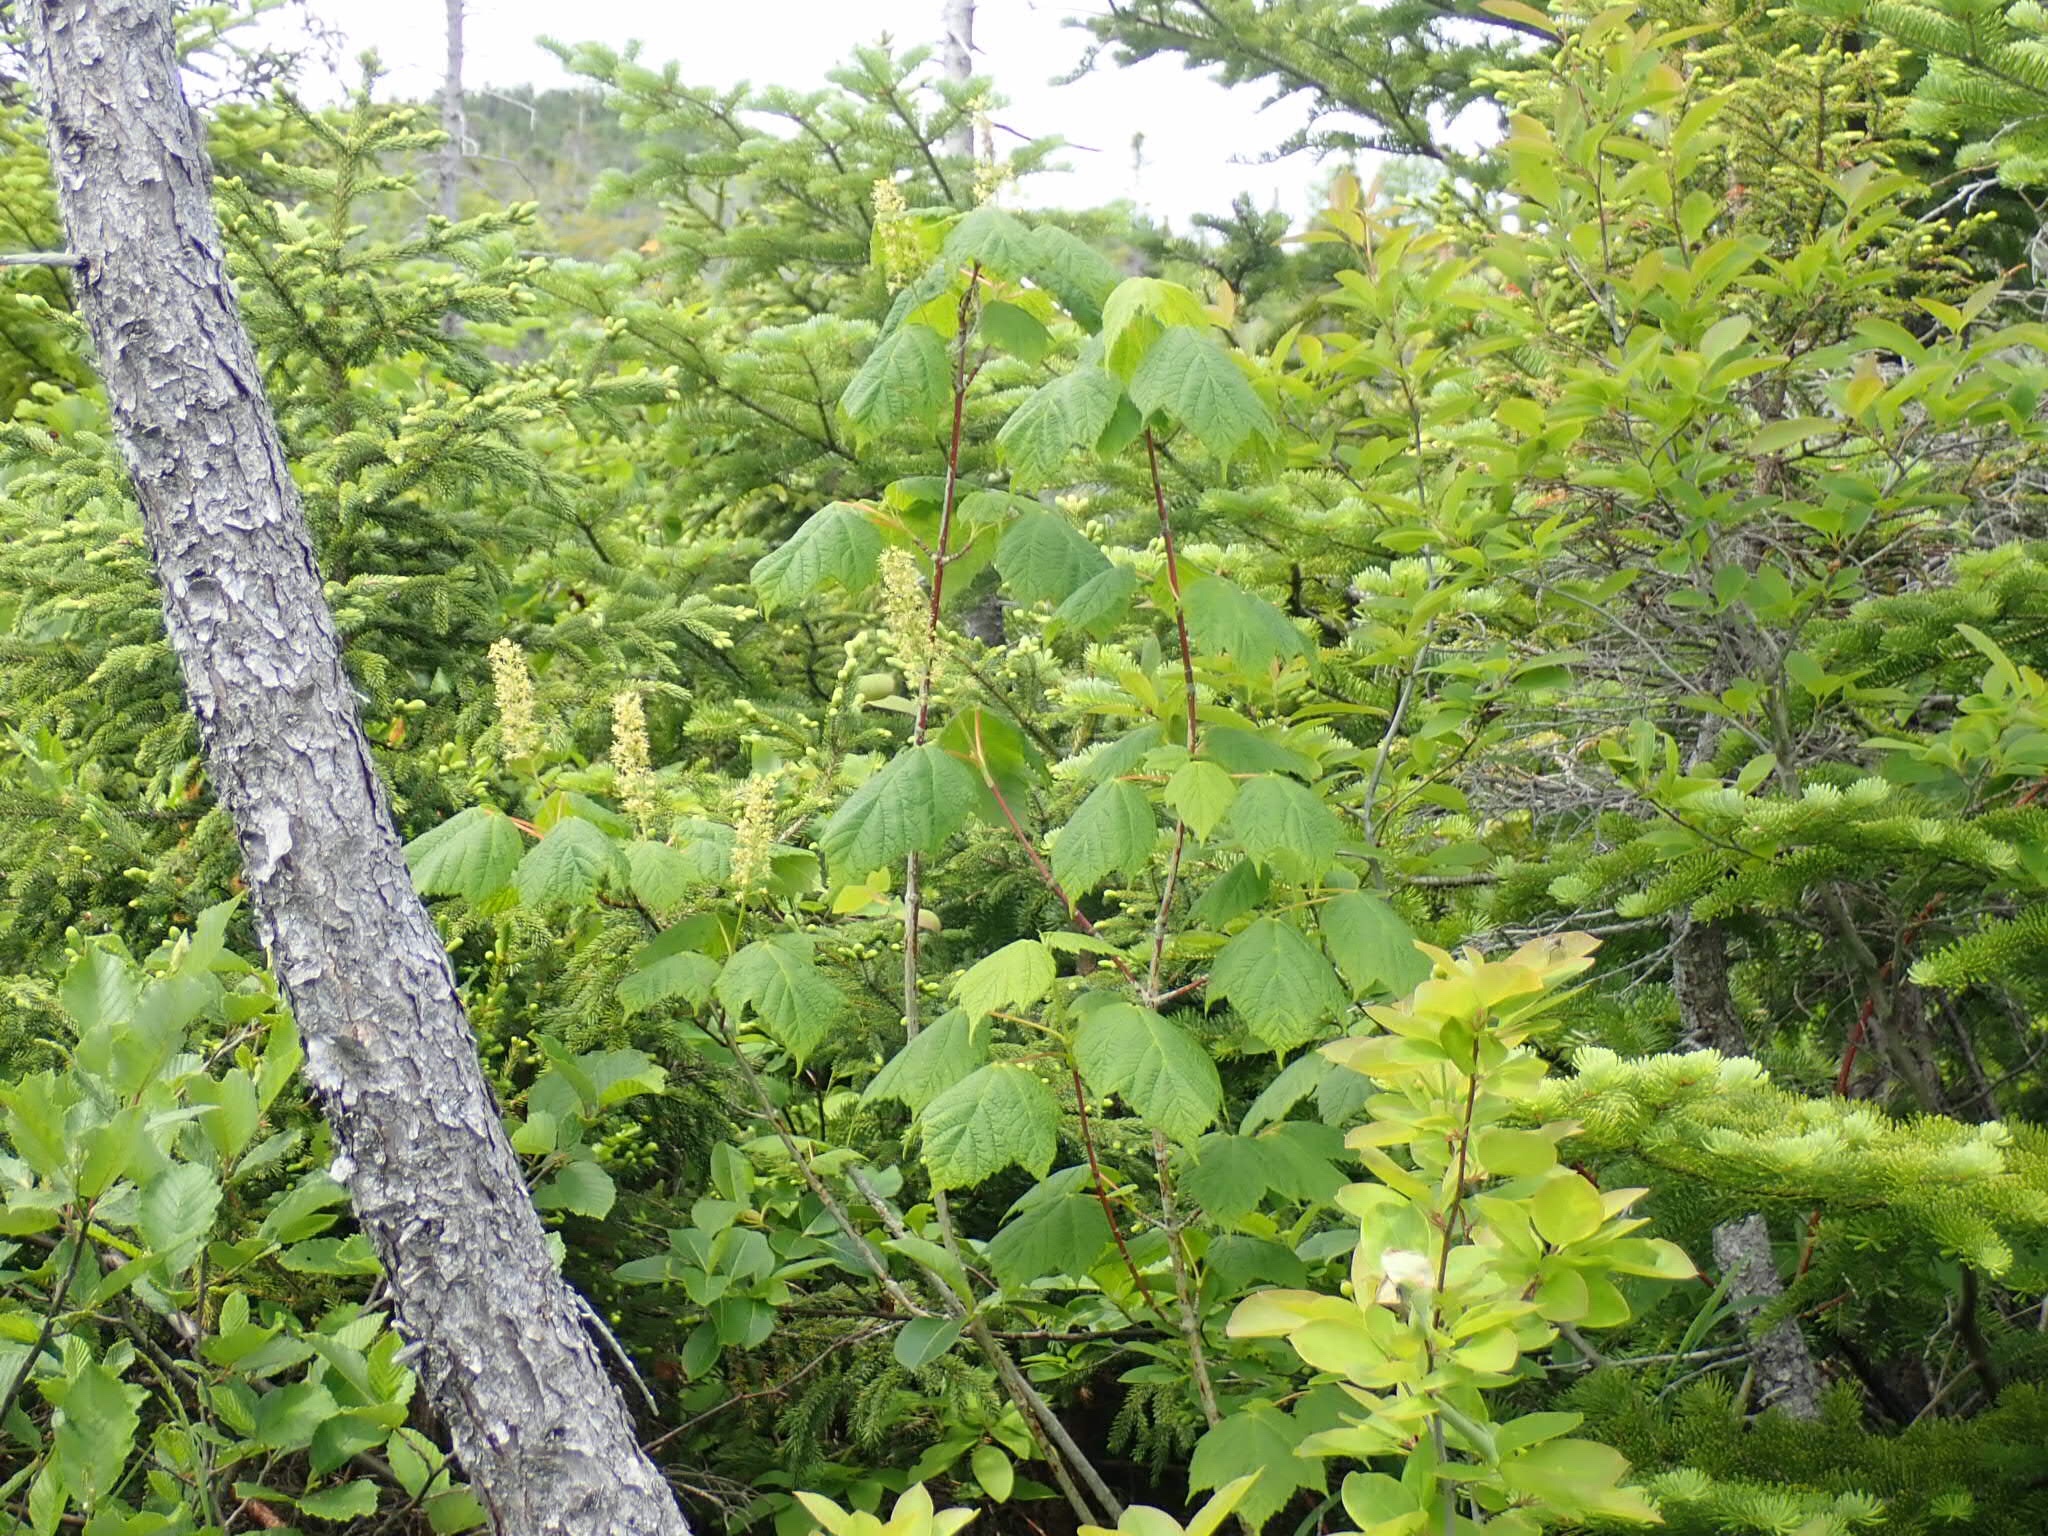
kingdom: Plantae
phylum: Tracheophyta
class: Magnoliopsida
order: Sapindales
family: Sapindaceae
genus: Acer
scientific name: Acer spicatum
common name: Mountain maple
